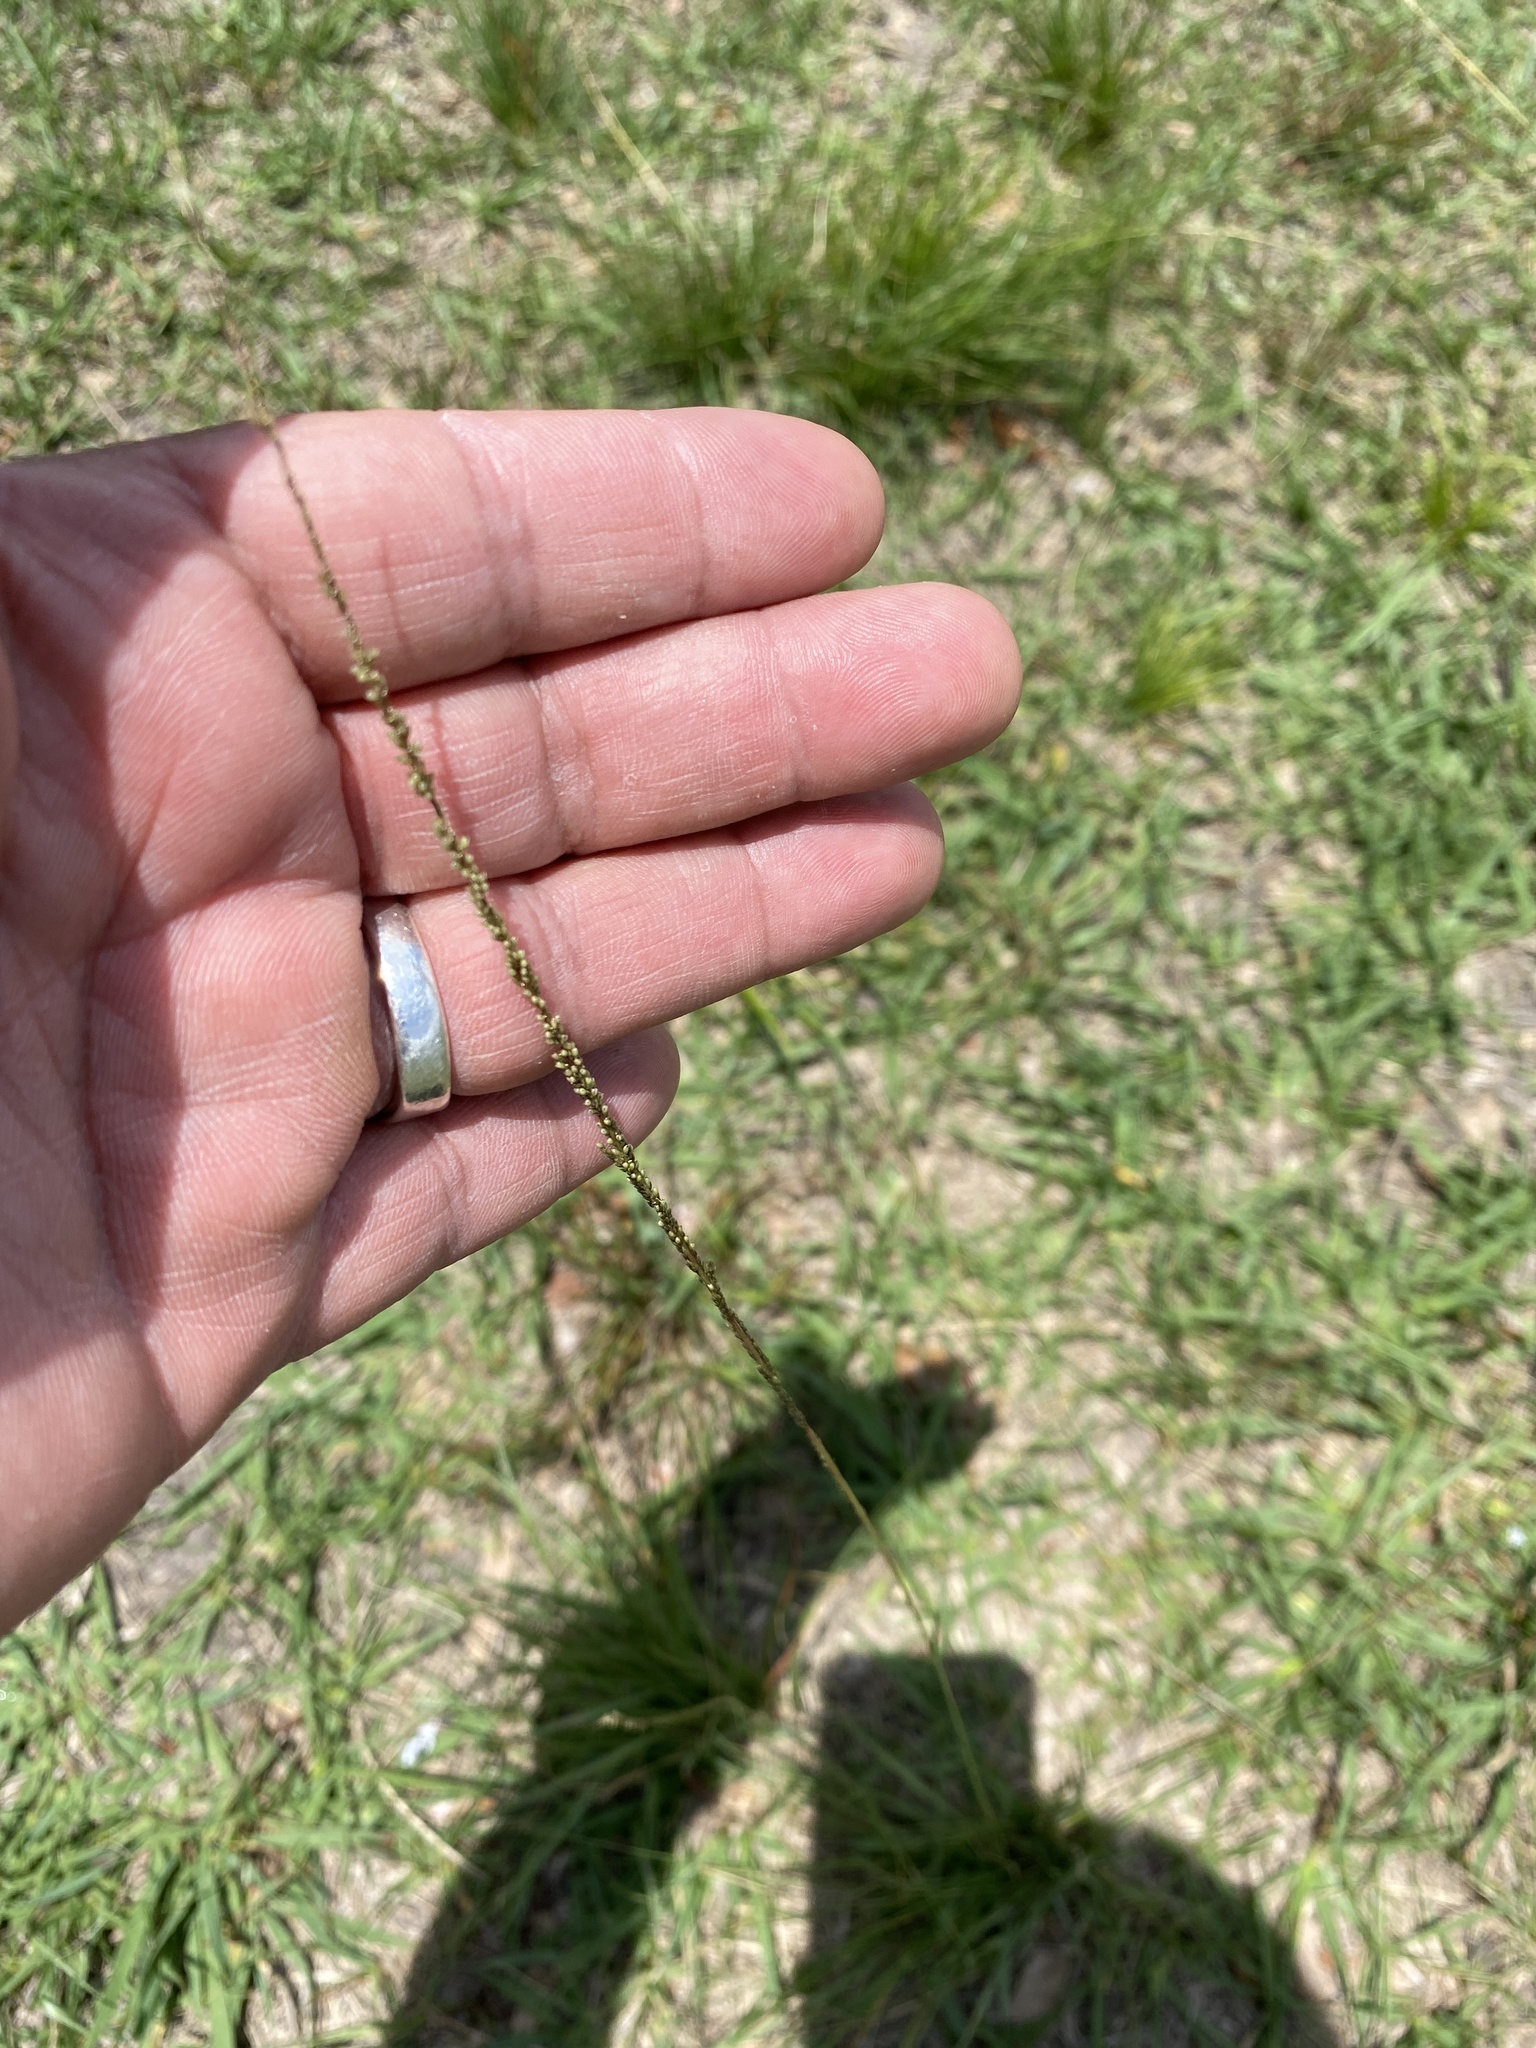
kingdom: Plantae
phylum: Tracheophyta
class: Liliopsida
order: Poales
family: Poaceae
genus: Sporobolus
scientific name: Sporobolus indicus
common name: Smut grass
